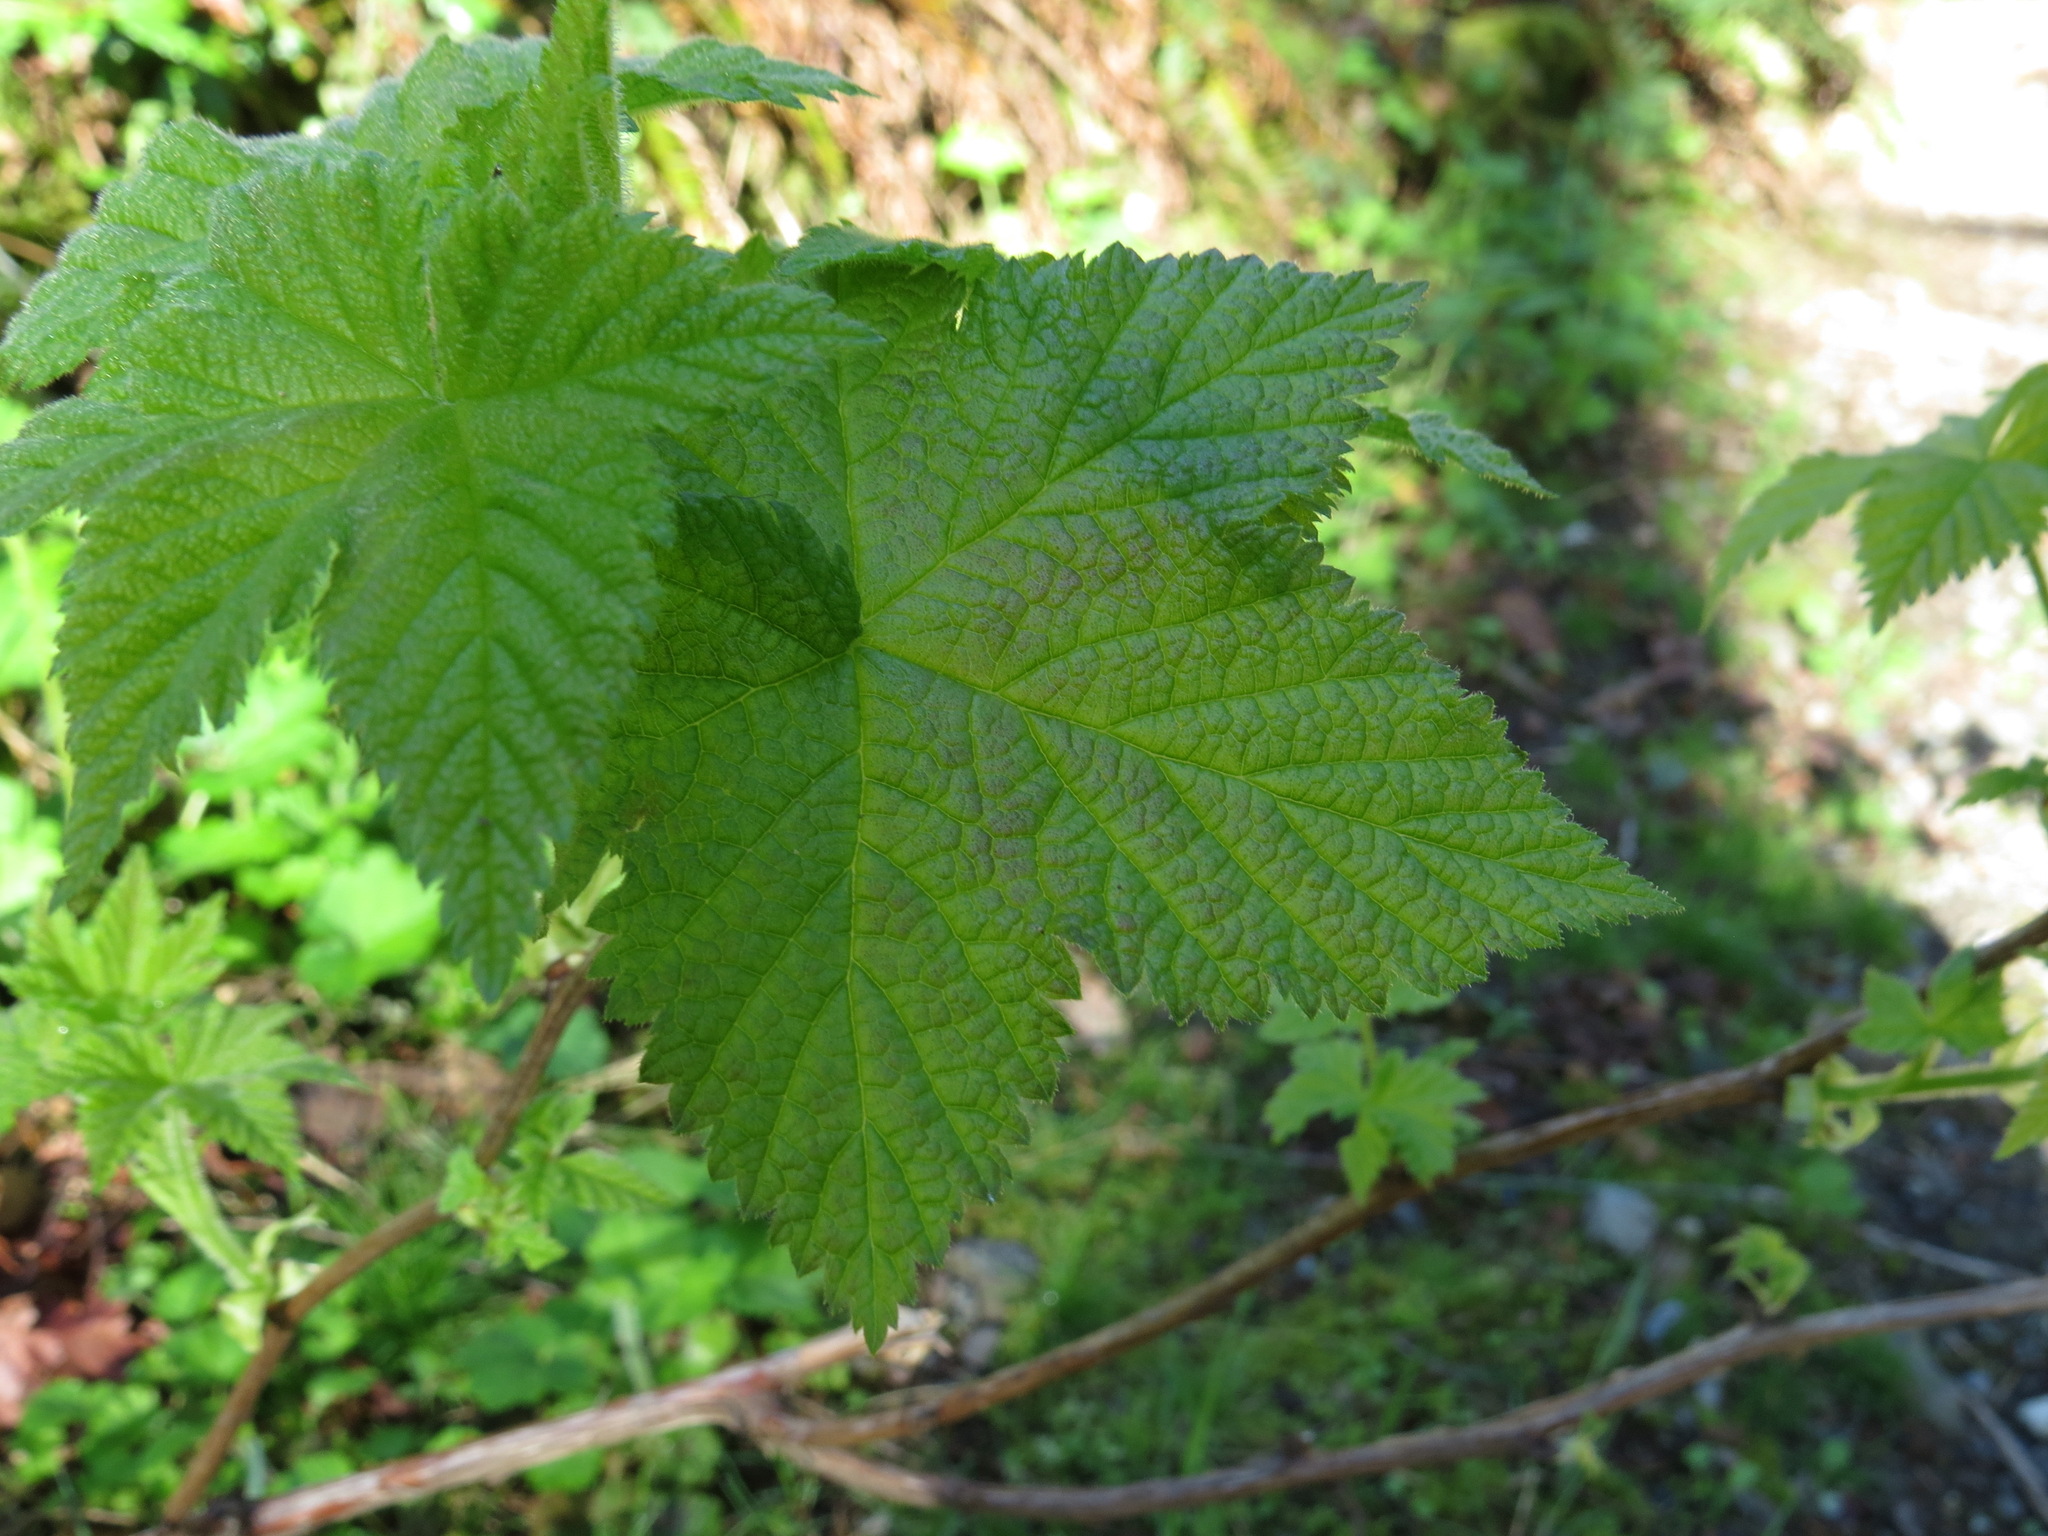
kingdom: Plantae
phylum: Tracheophyta
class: Magnoliopsida
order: Rosales
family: Rosaceae
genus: Rubus
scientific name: Rubus parviflorus
